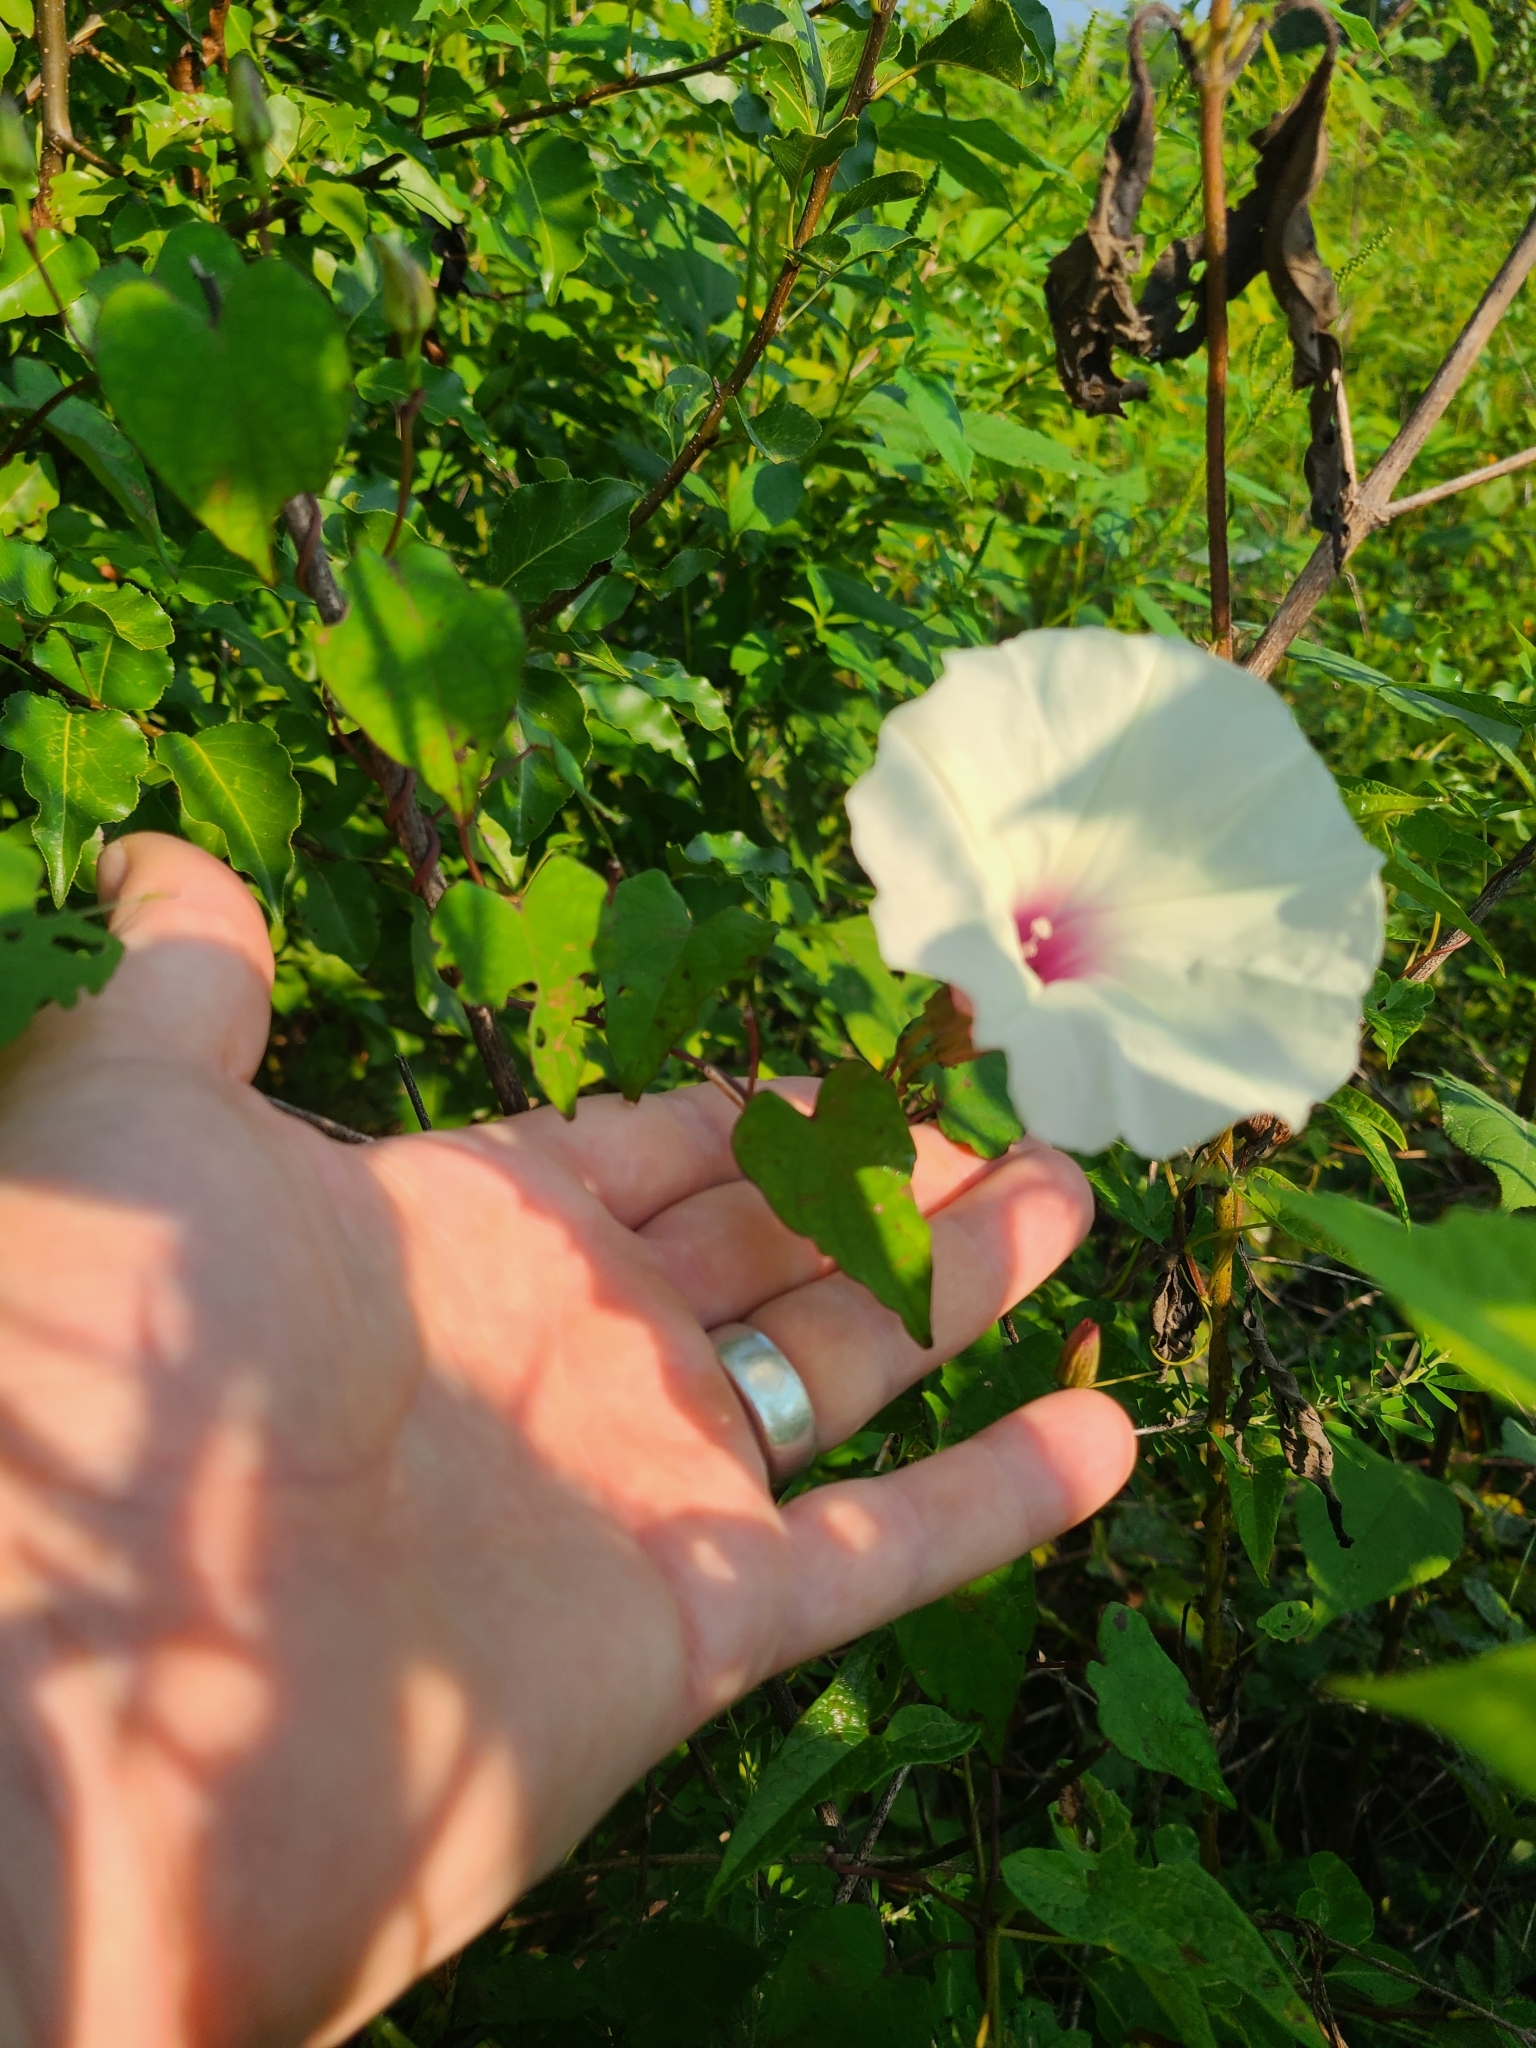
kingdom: Plantae
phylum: Tracheophyta
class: Magnoliopsida
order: Solanales
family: Convolvulaceae
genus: Ipomoea
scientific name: Ipomoea pandurata
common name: Man-of-the-earth
